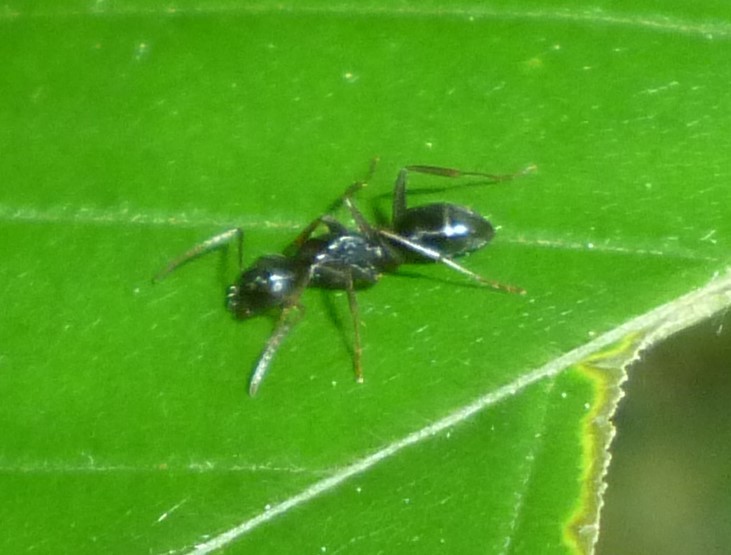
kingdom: Animalia
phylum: Arthropoda
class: Insecta
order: Hymenoptera
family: Formicidae
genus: Myrmentoma
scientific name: Myrmentoma
